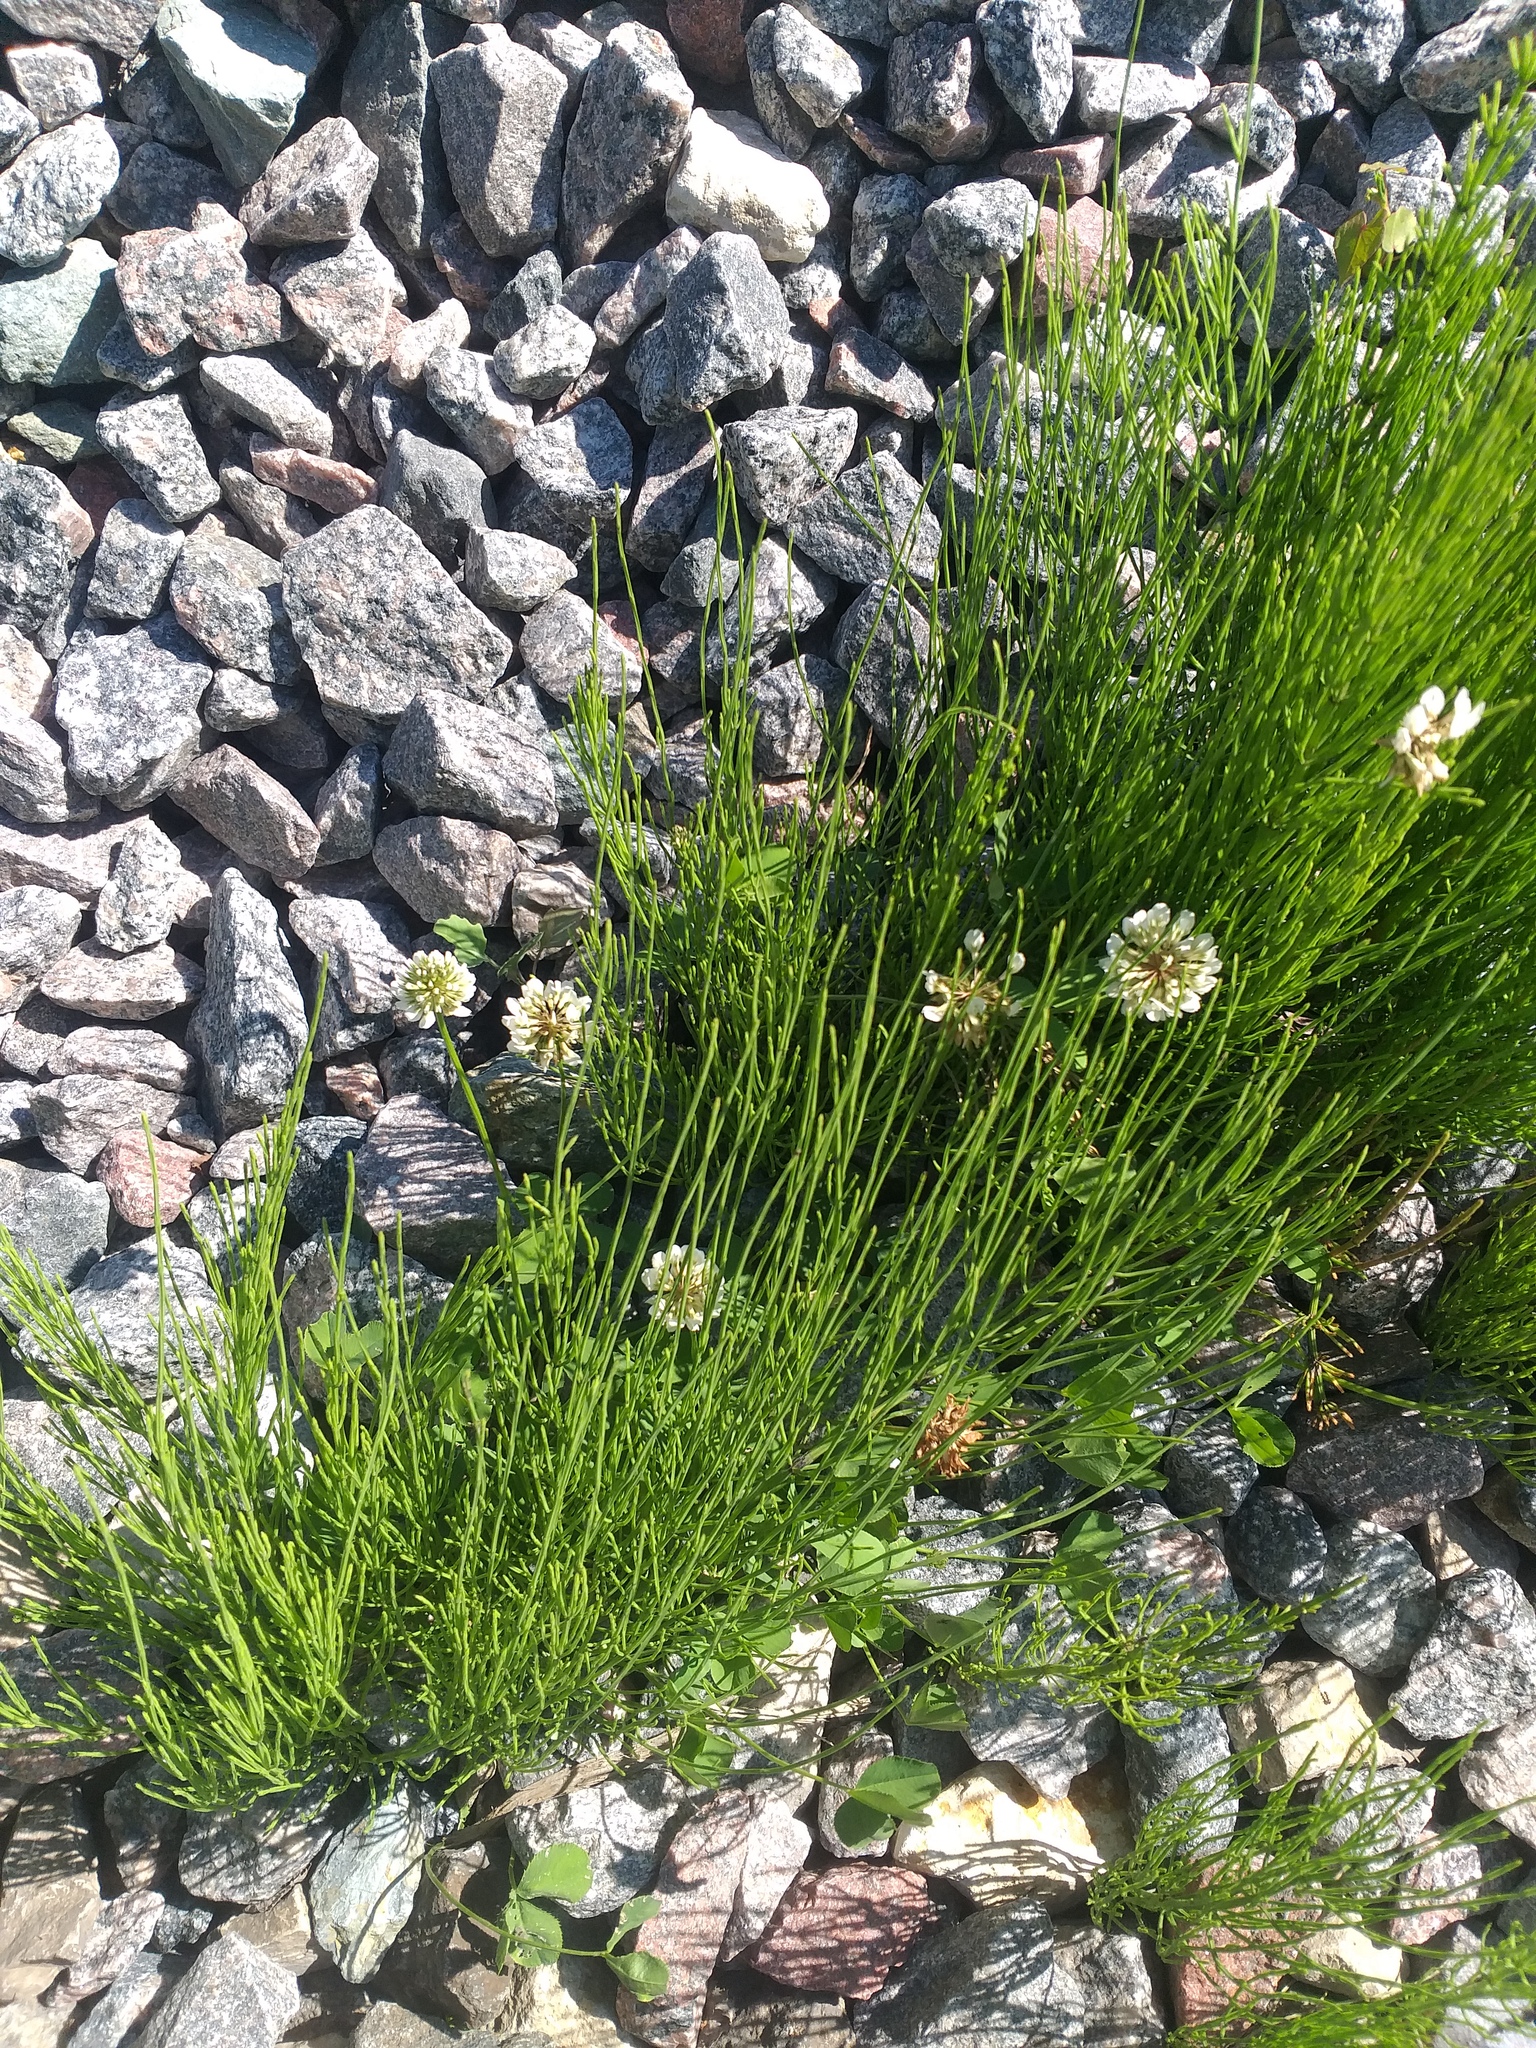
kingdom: Plantae
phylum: Tracheophyta
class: Magnoliopsida
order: Fabales
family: Fabaceae
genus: Trifolium
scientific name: Trifolium repens
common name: White clover
